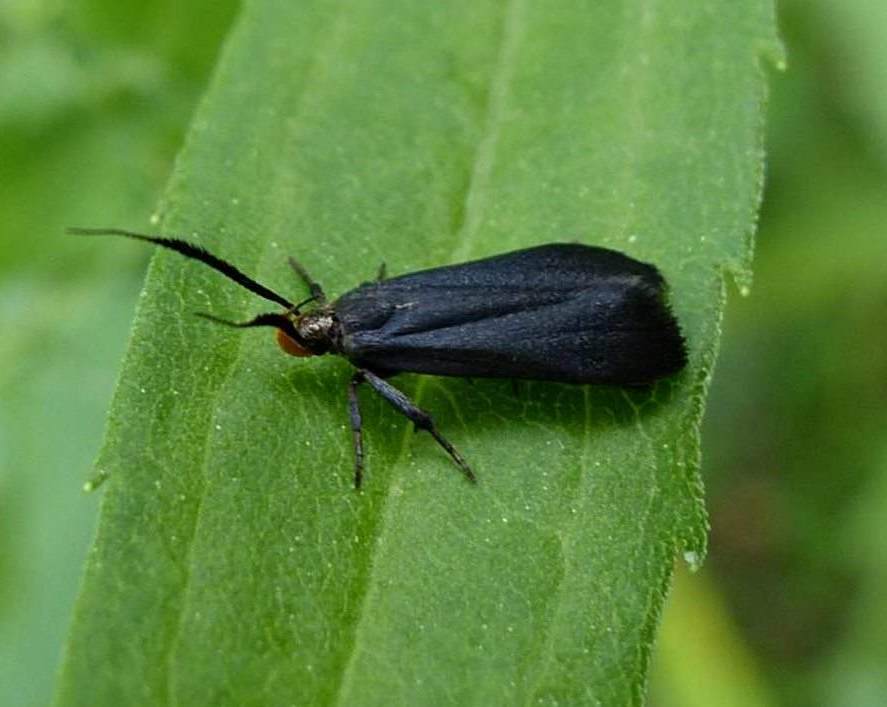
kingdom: Animalia
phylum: Arthropoda
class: Insecta
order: Lepidoptera
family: Gelechiidae
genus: Dichomeris
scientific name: Dichomeris nonstrigella
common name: Little devil moth
